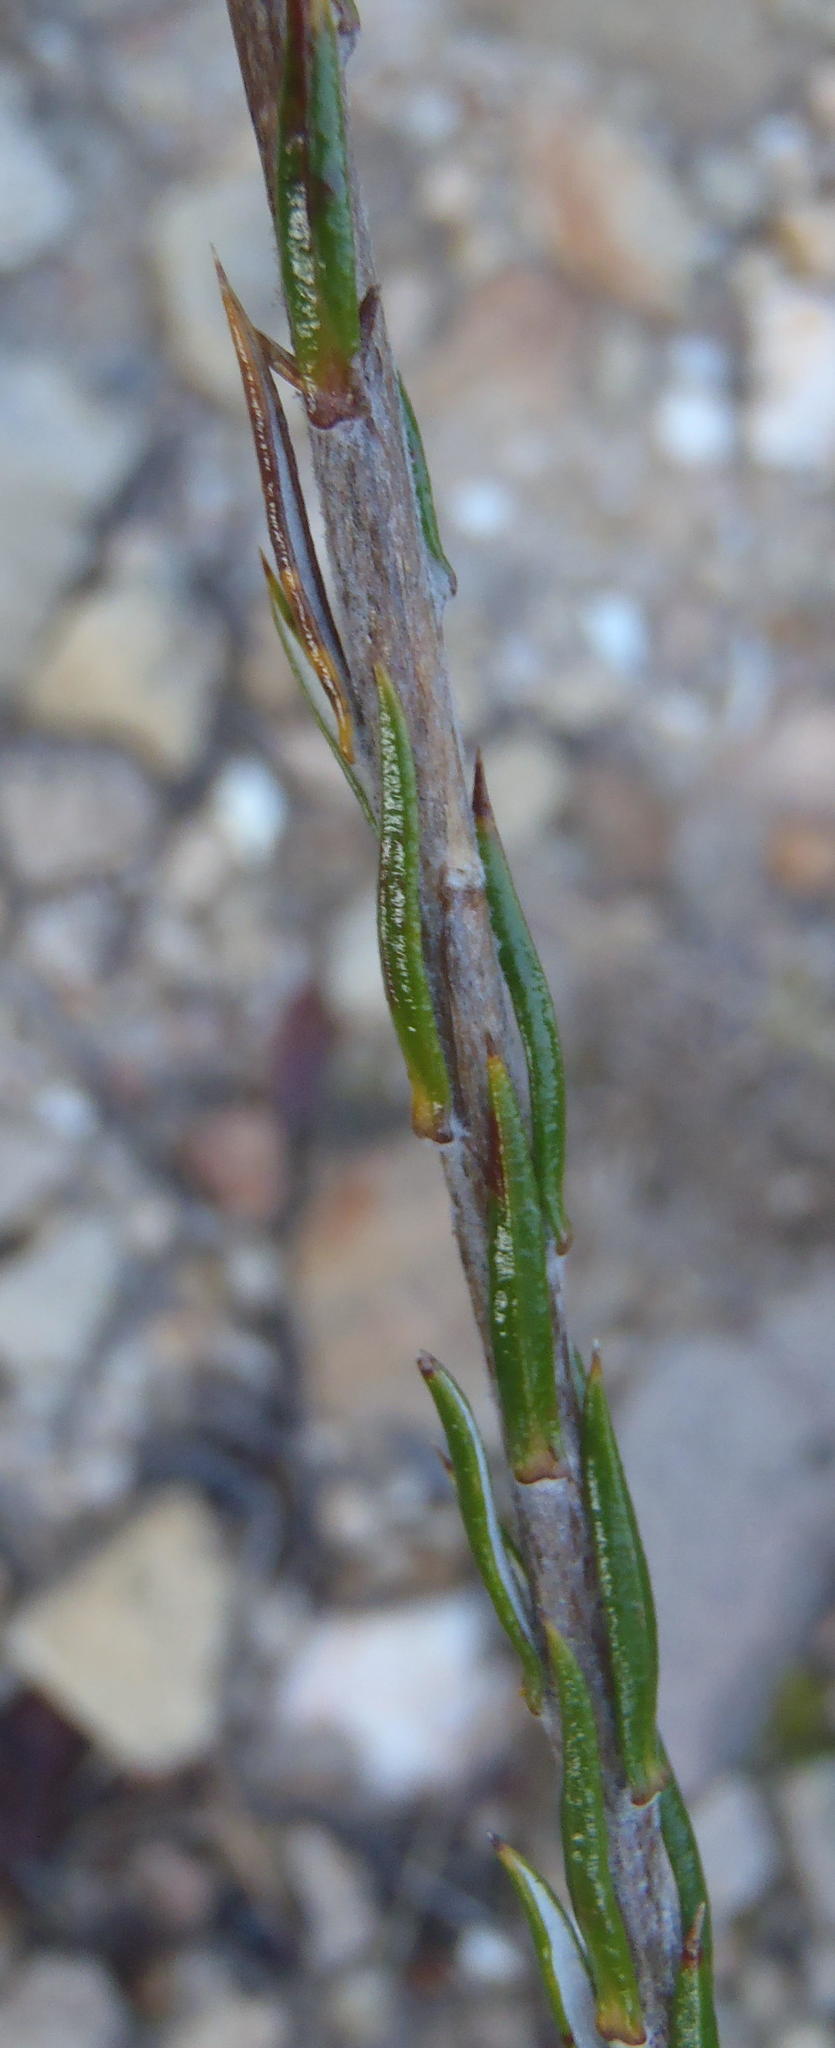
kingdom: Plantae
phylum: Tracheophyta
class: Magnoliopsida
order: Asterales
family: Asteraceae
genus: Metalasia
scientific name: Metalasia pungens
